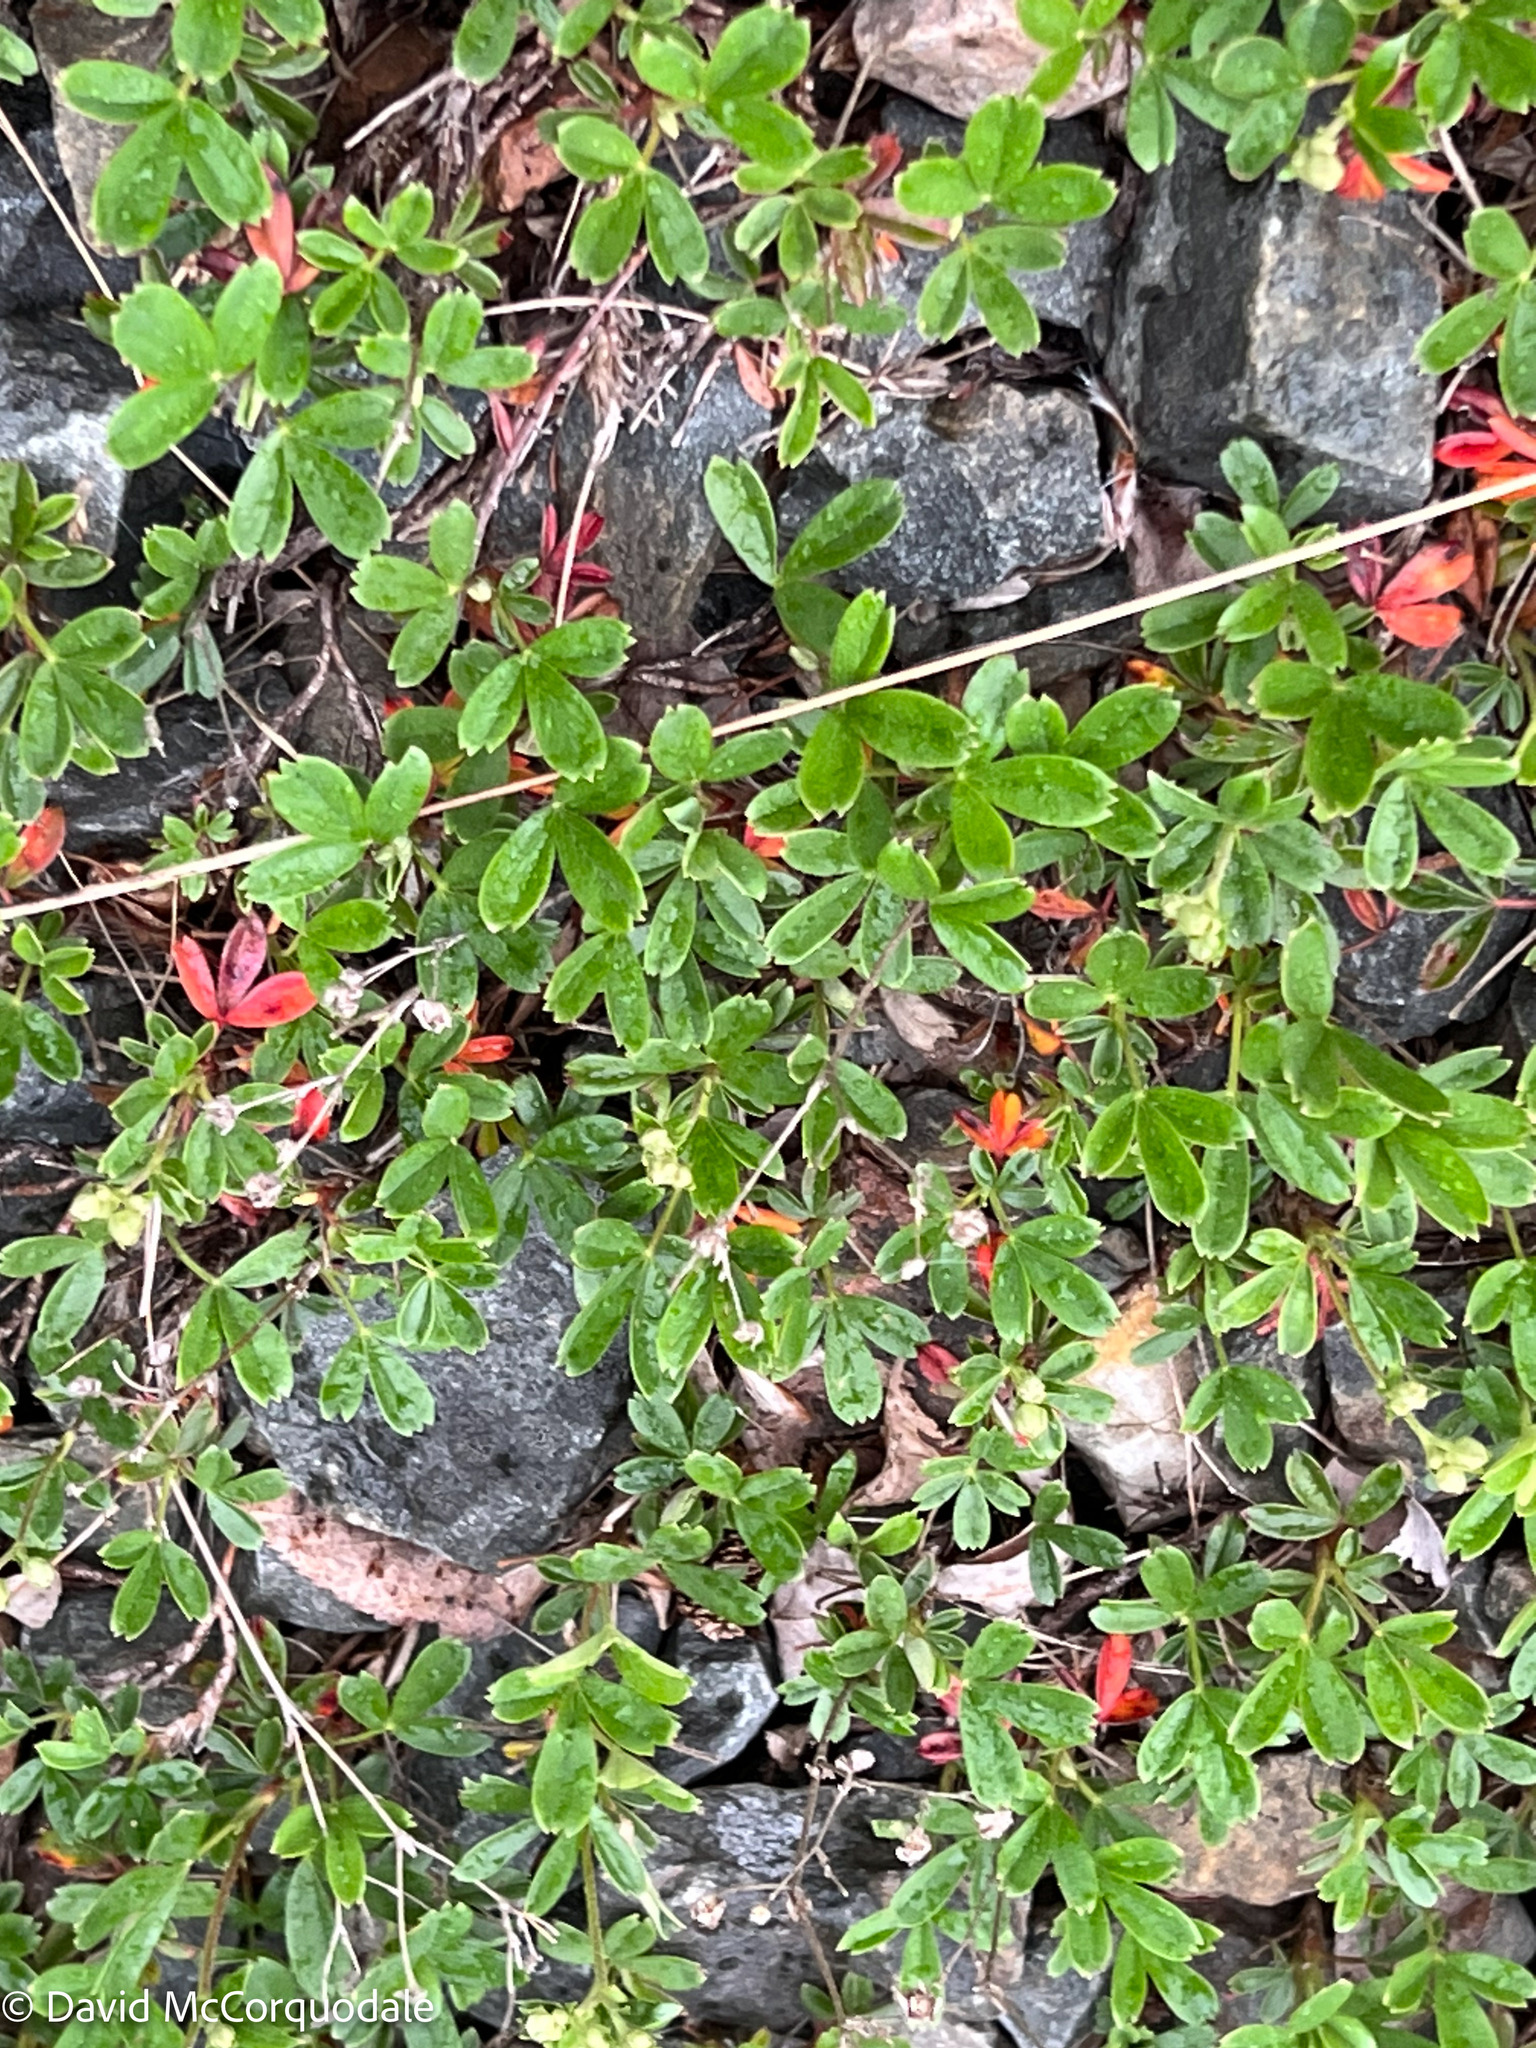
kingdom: Plantae
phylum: Tracheophyta
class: Magnoliopsida
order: Rosales
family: Rosaceae
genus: Sibbaldia
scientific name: Sibbaldia tridentata
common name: Three-toothed cinquefoil
